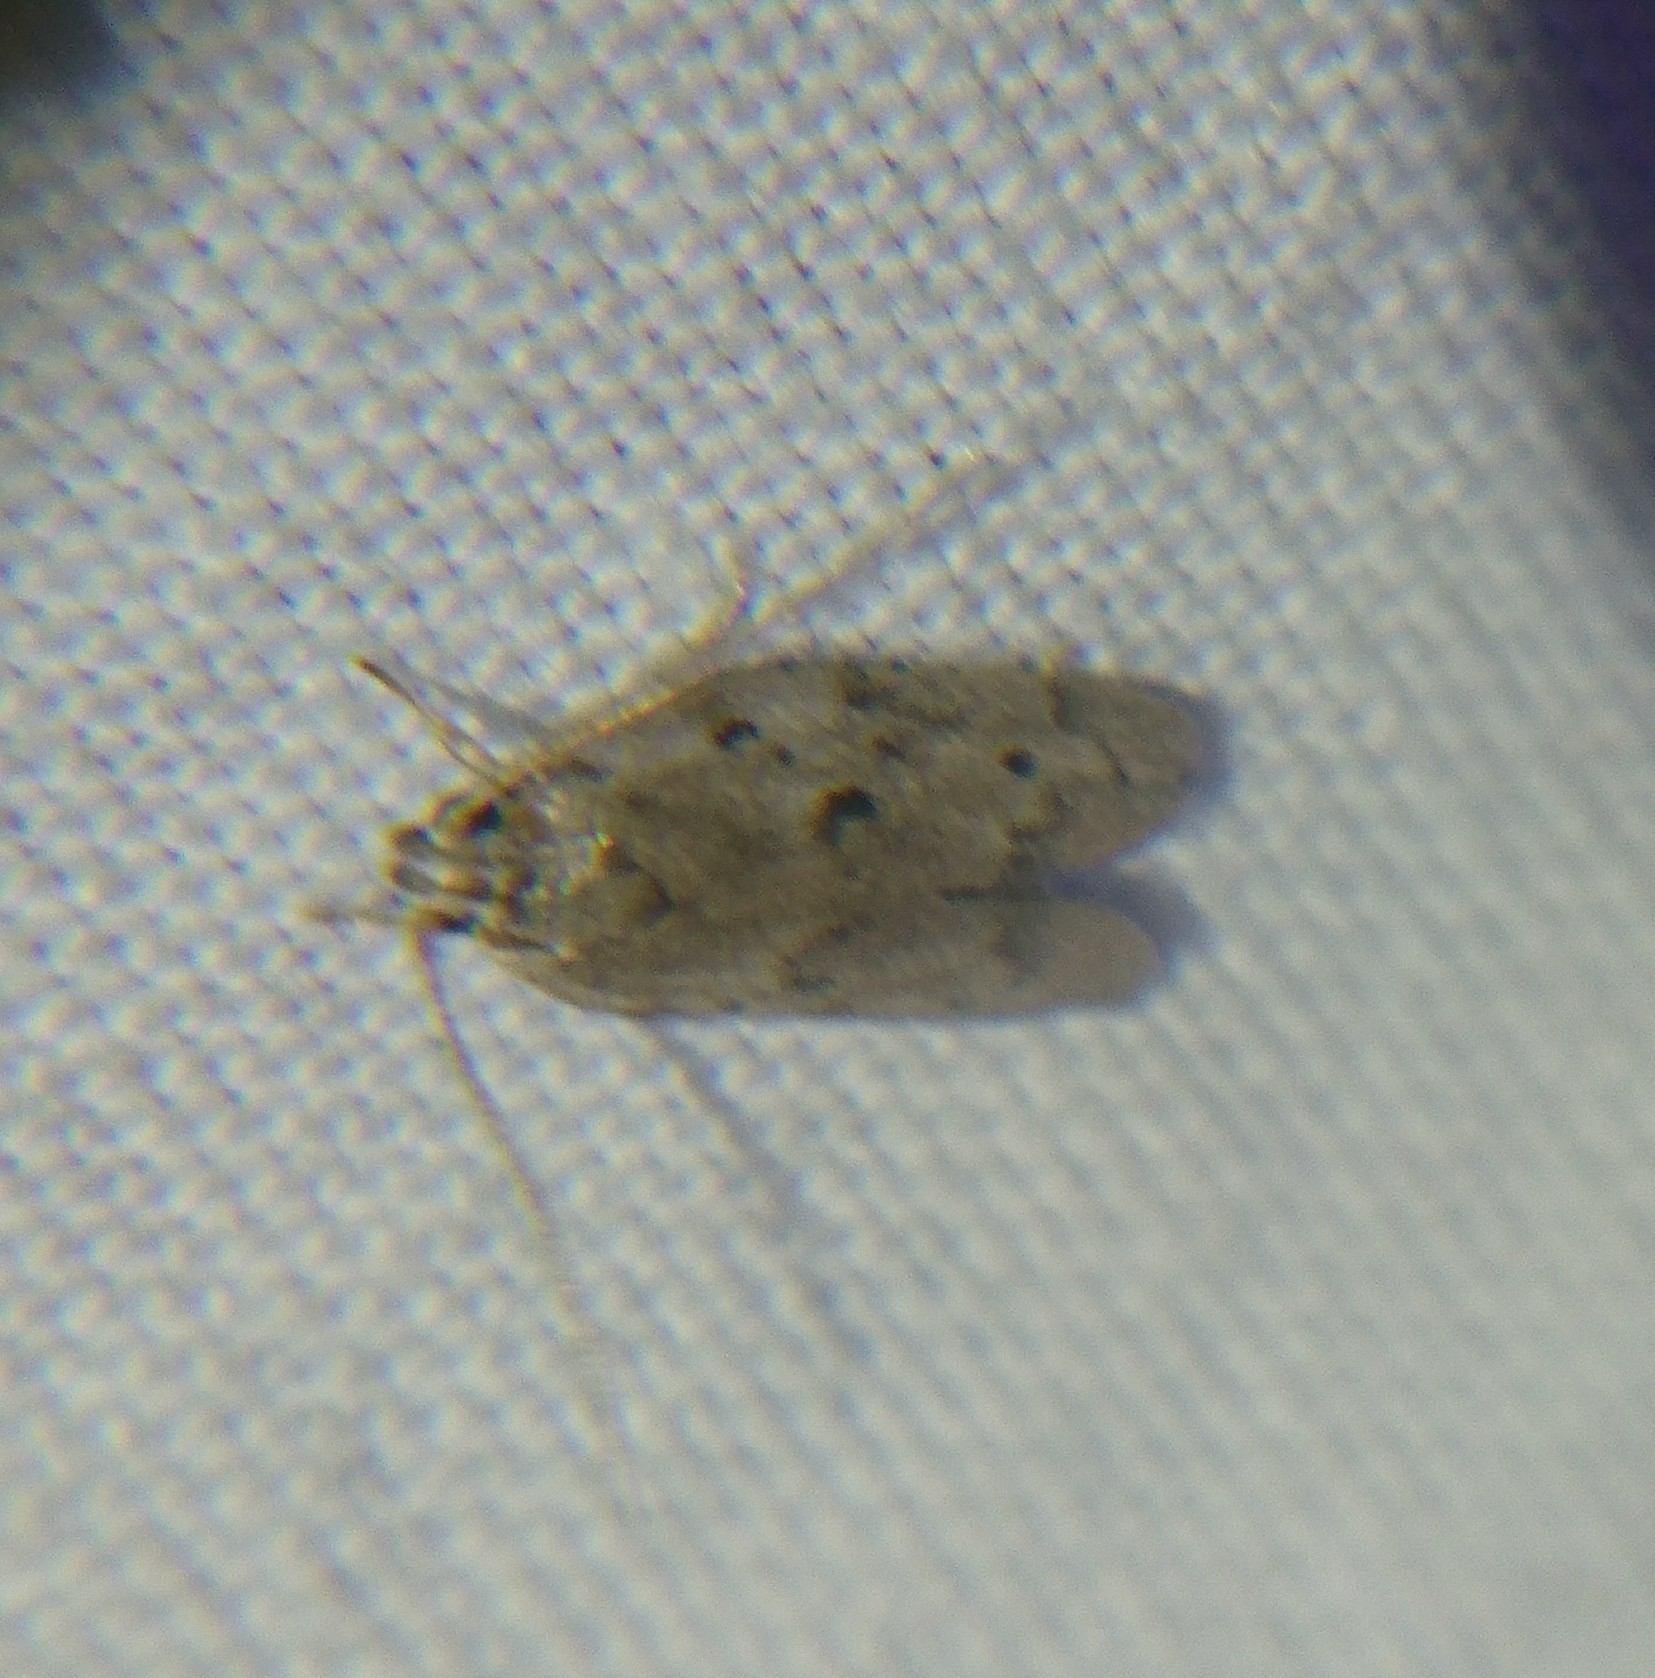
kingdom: Animalia
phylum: Arthropoda
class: Insecta
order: Lepidoptera
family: Depressariidae
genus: Antaeotricha
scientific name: Antaeotricha humilis
